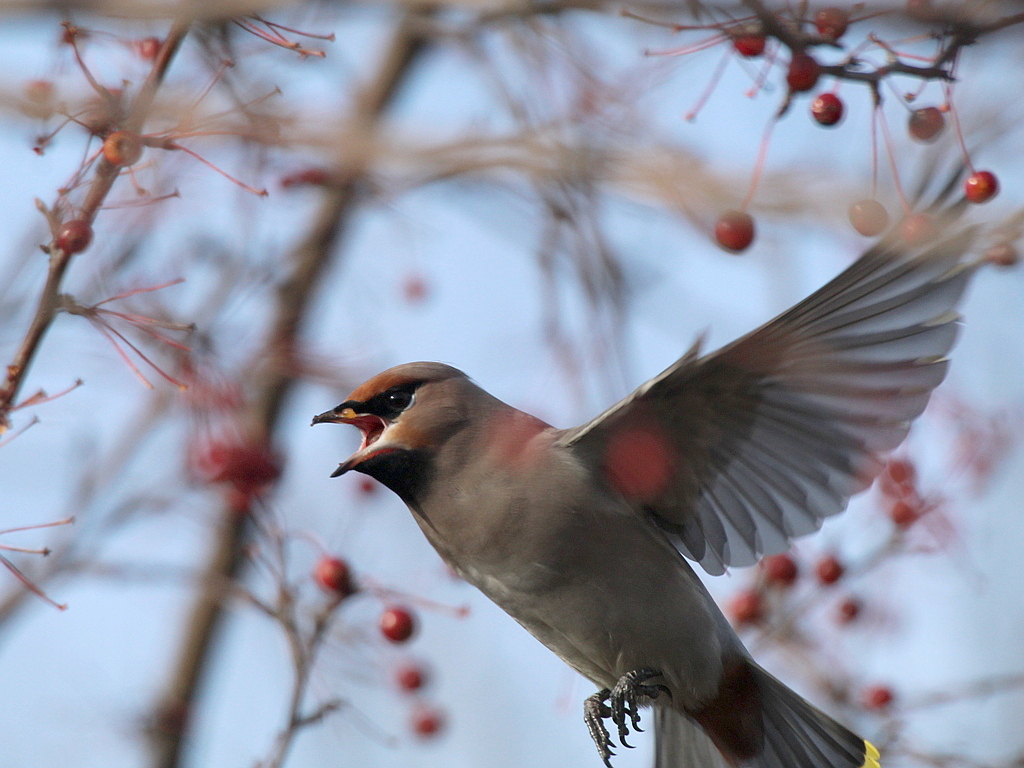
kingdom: Animalia
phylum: Chordata
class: Aves
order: Passeriformes
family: Bombycillidae
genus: Bombycilla
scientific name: Bombycilla garrulus
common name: Bohemian waxwing
